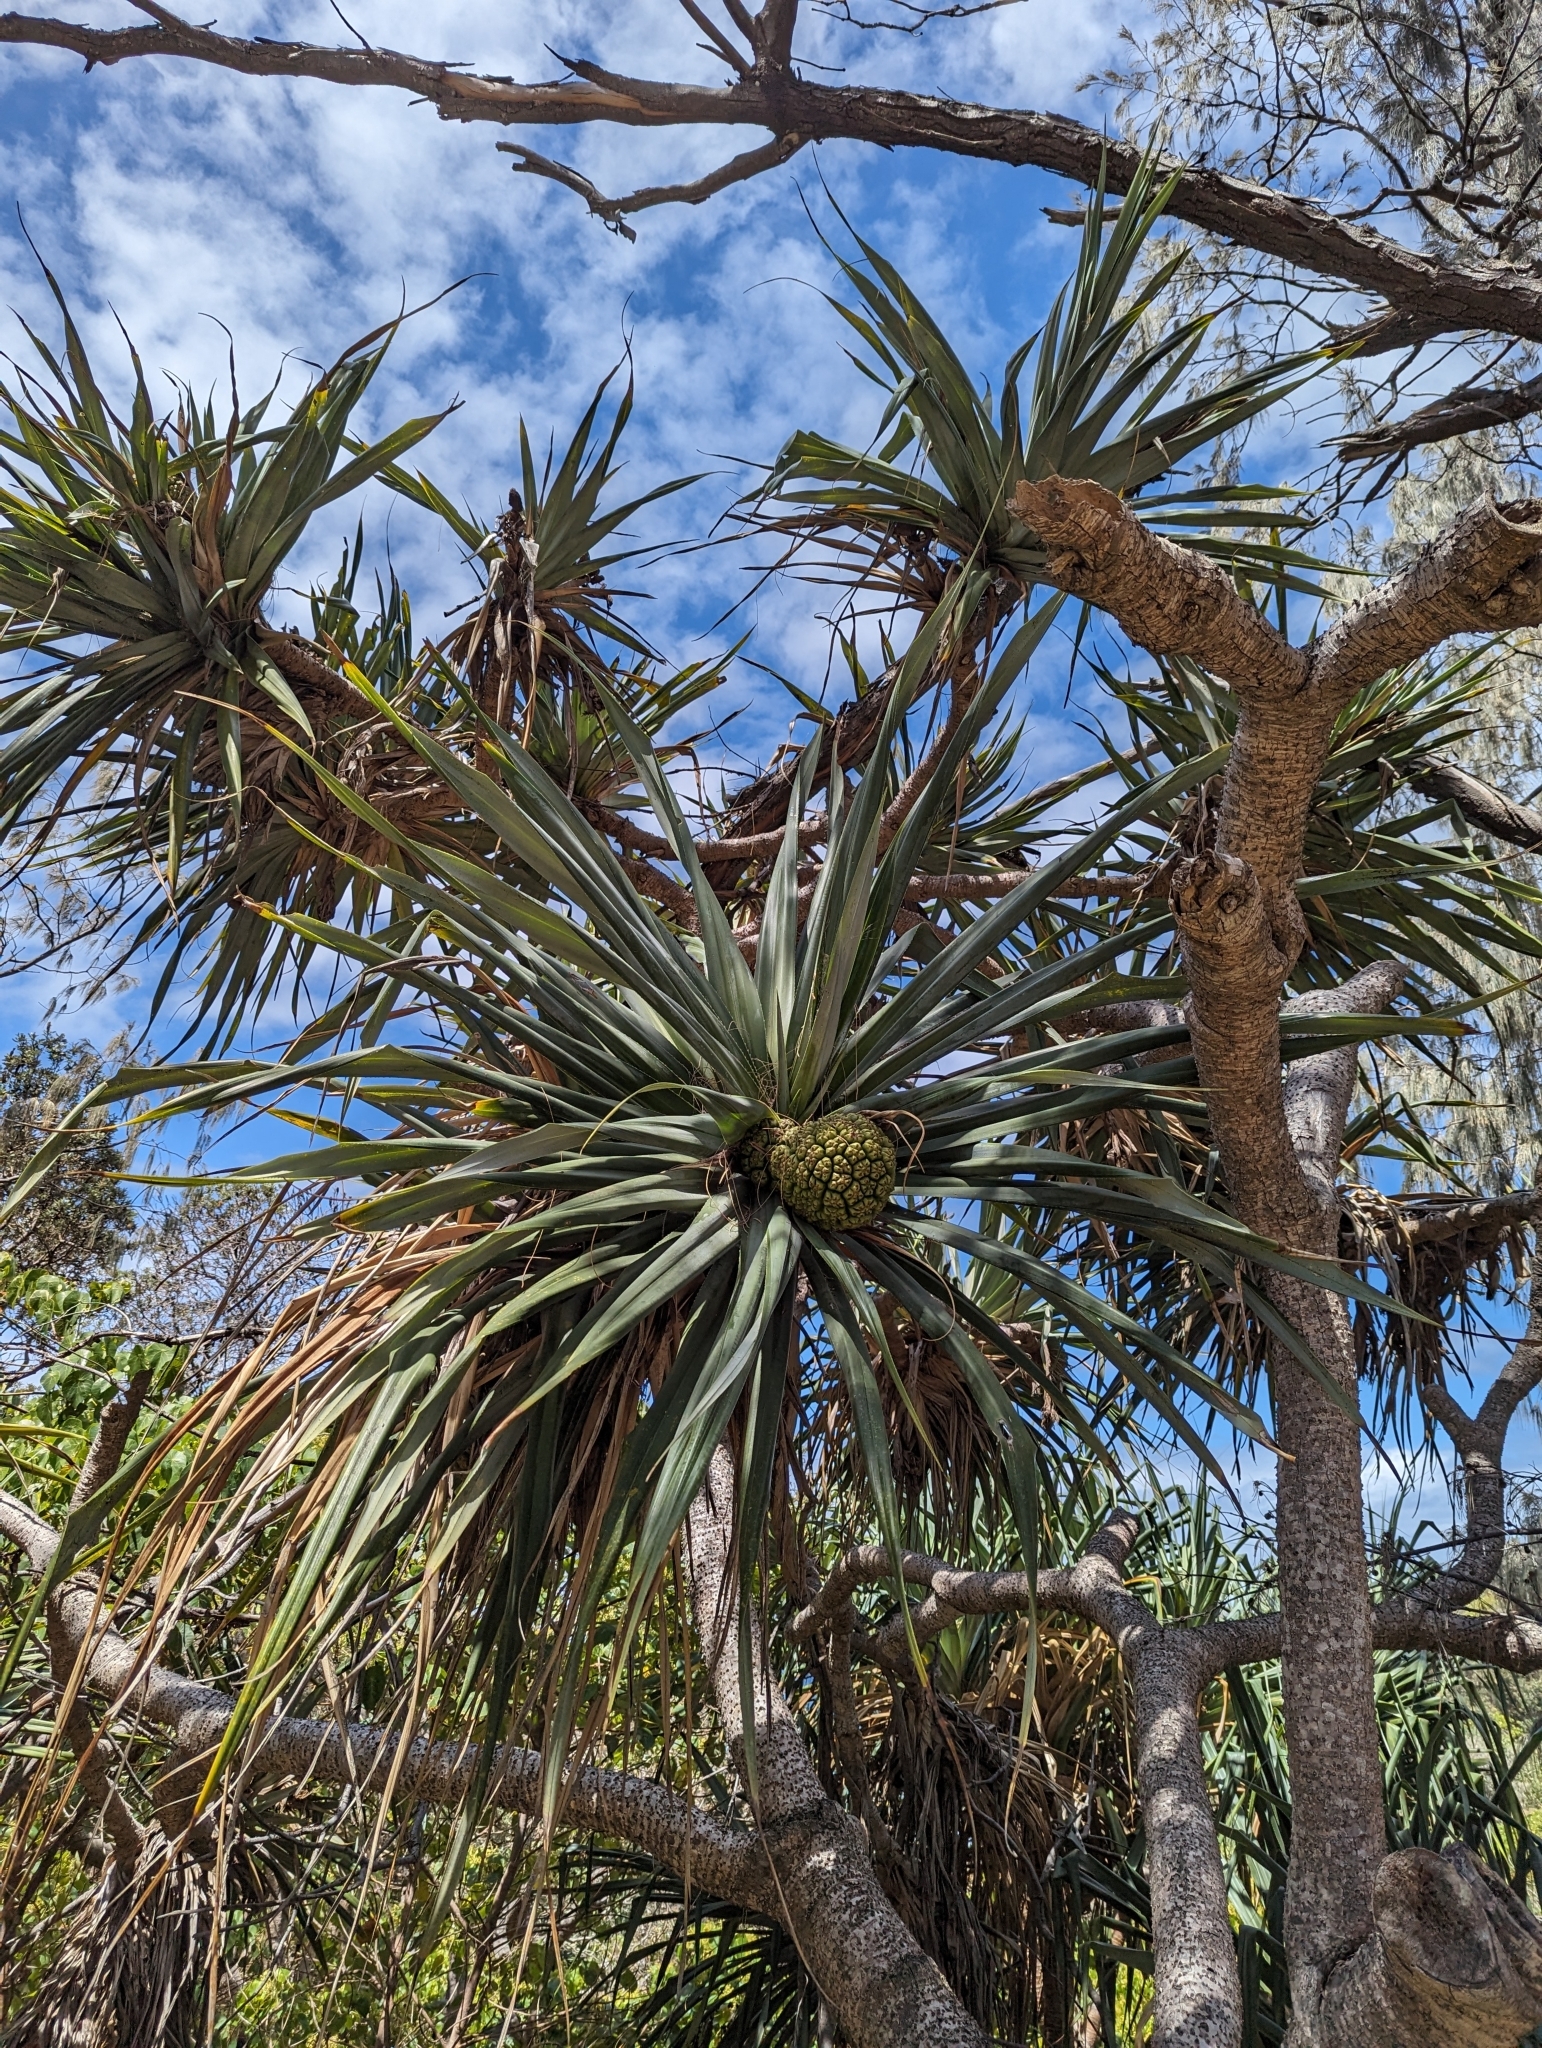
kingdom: Plantae
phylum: Tracheophyta
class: Liliopsida
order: Pandanales
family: Pandanaceae
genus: Pandanus
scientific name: Pandanus tectorius
